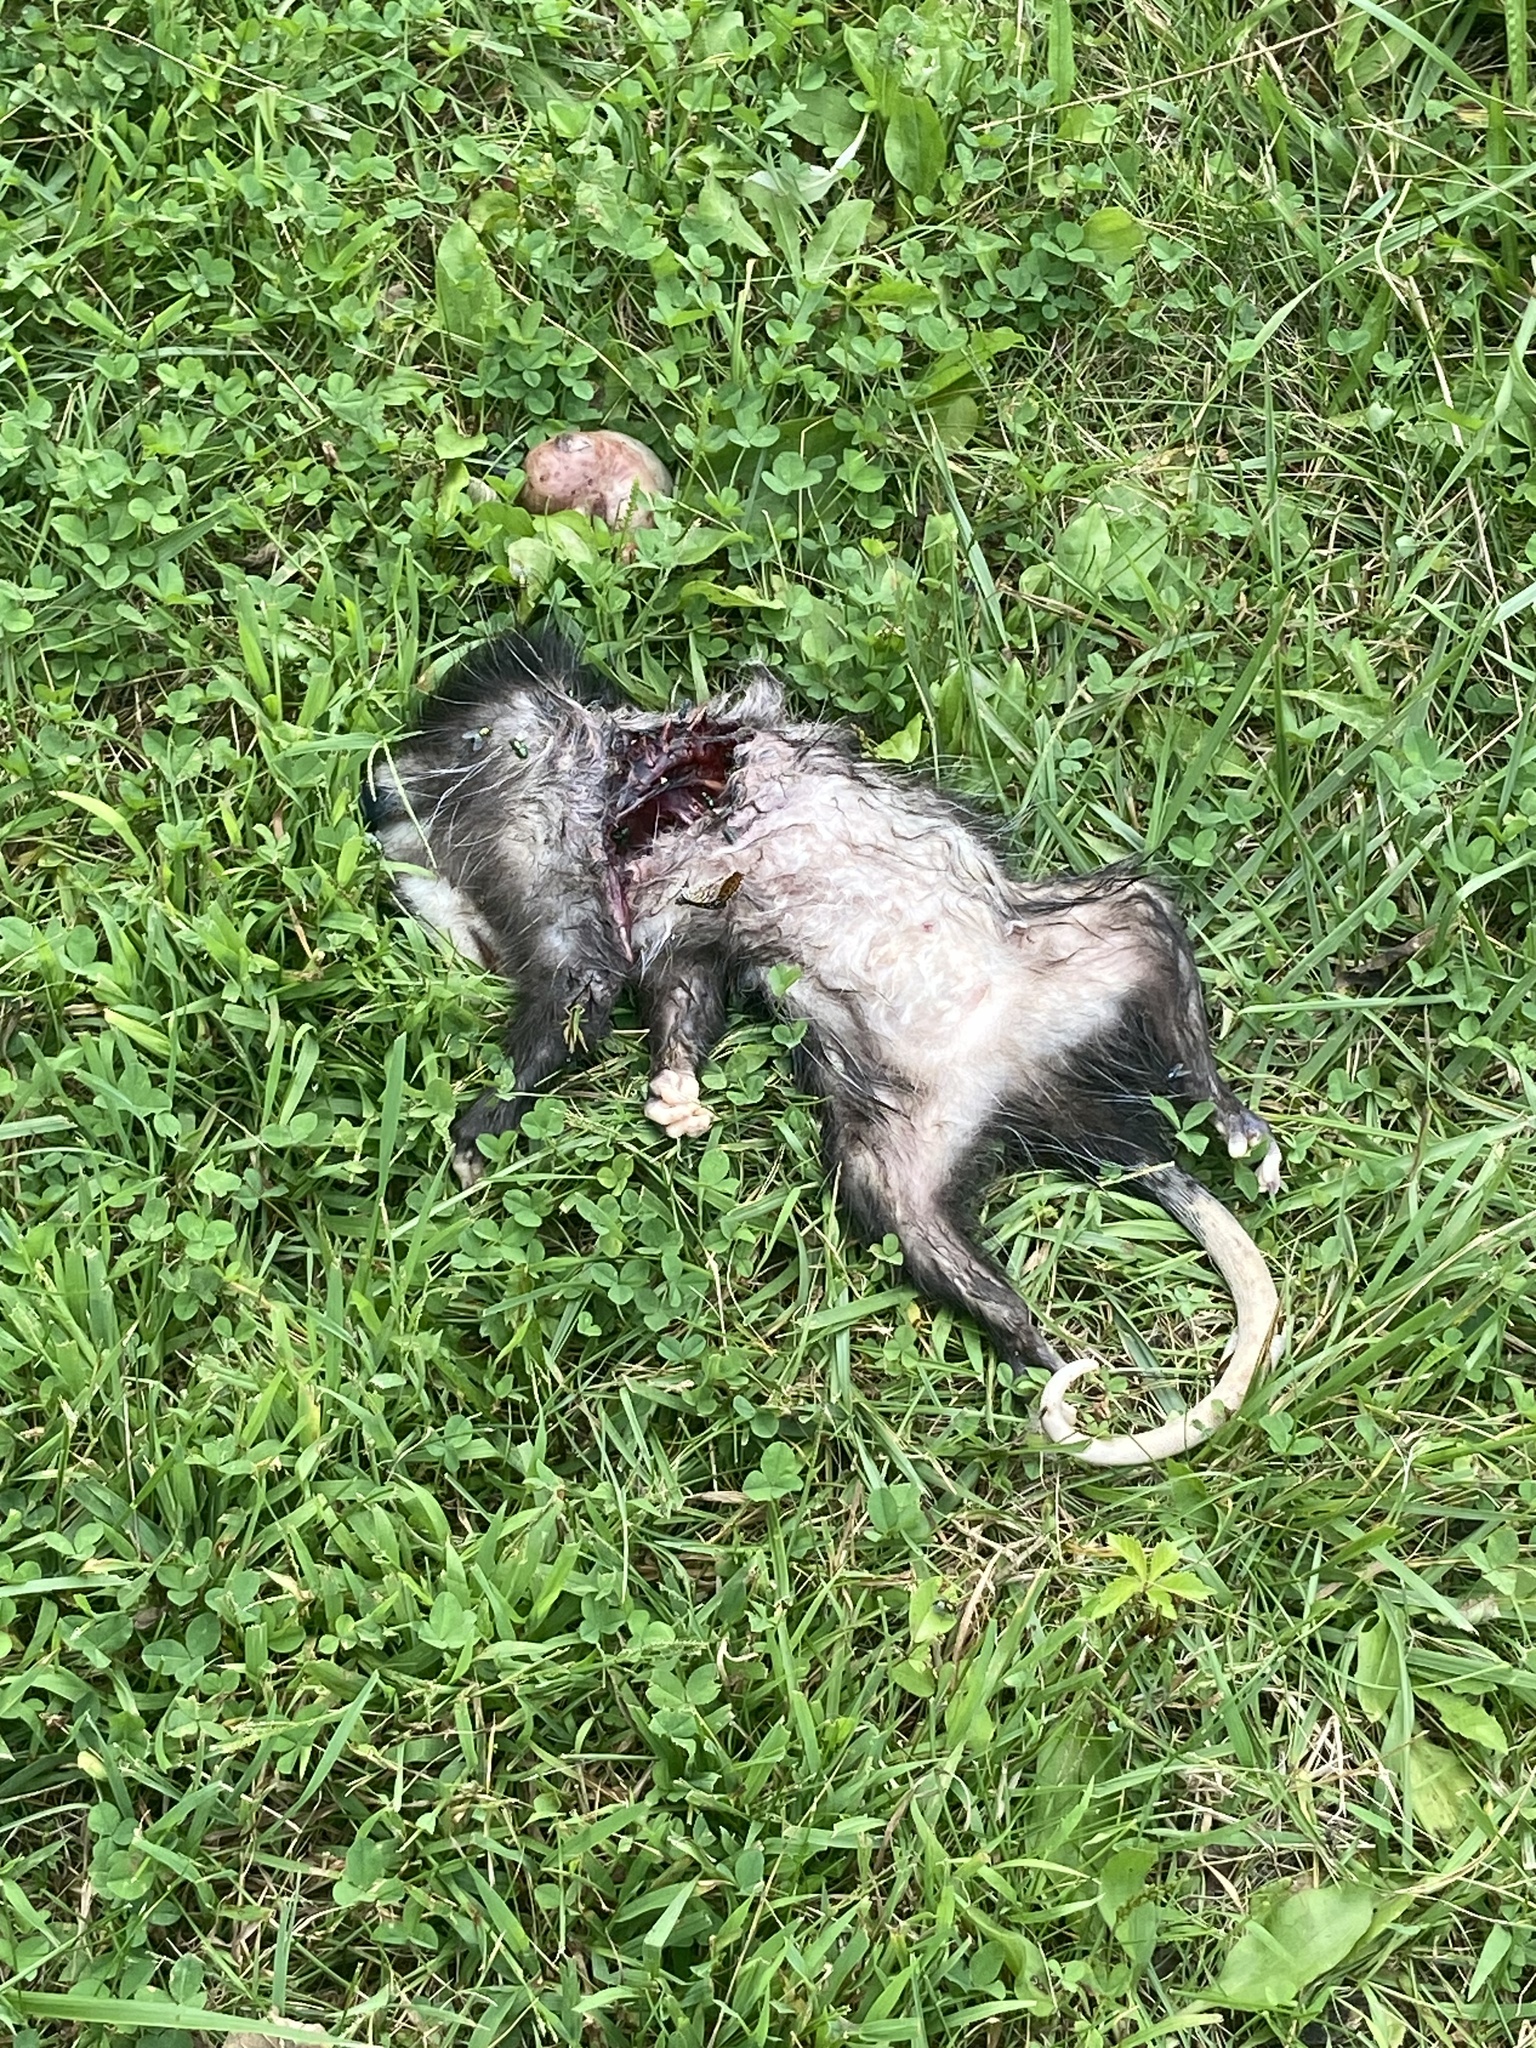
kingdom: Animalia
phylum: Chordata
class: Mammalia
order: Didelphimorphia
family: Didelphidae
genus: Didelphis
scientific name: Didelphis virginiana
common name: Virginia opossum
